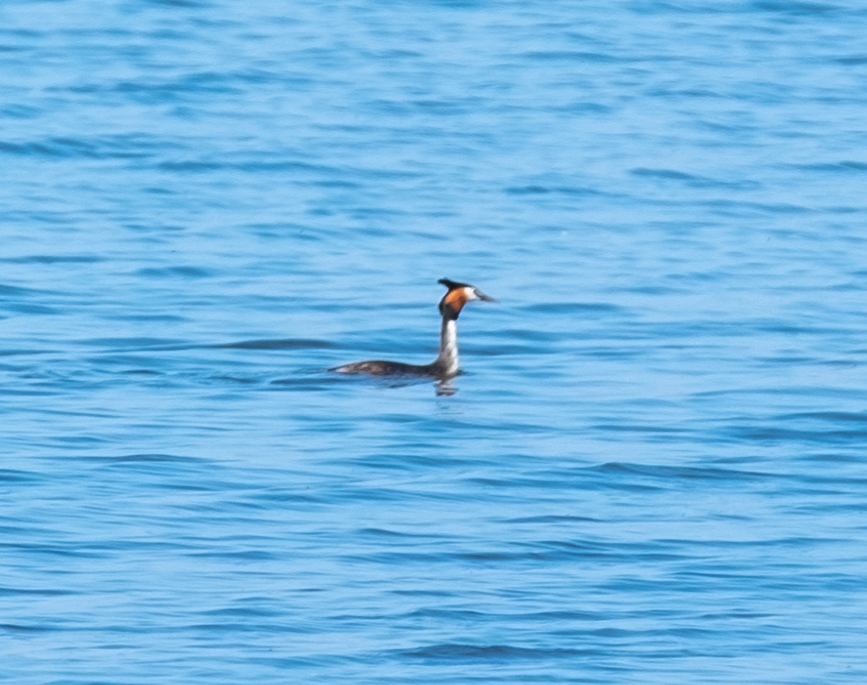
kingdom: Animalia
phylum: Chordata
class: Aves
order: Podicipediformes
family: Podicipedidae
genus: Podiceps
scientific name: Podiceps cristatus
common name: Great crested grebe
